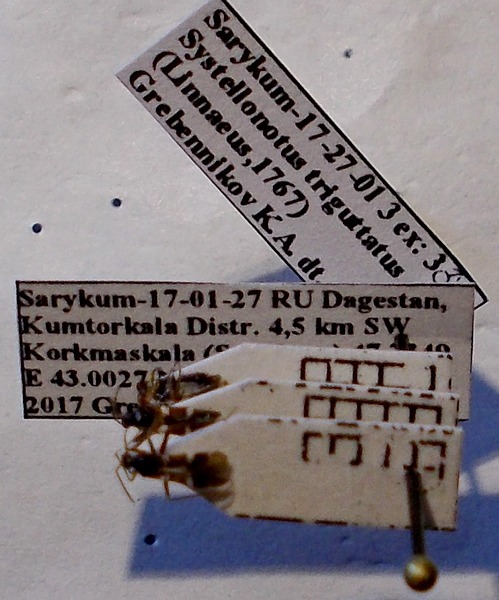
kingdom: Animalia
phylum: Arthropoda
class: Insecta
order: Hemiptera
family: Miridae
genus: Systellonotus
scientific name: Systellonotus triguttatus
